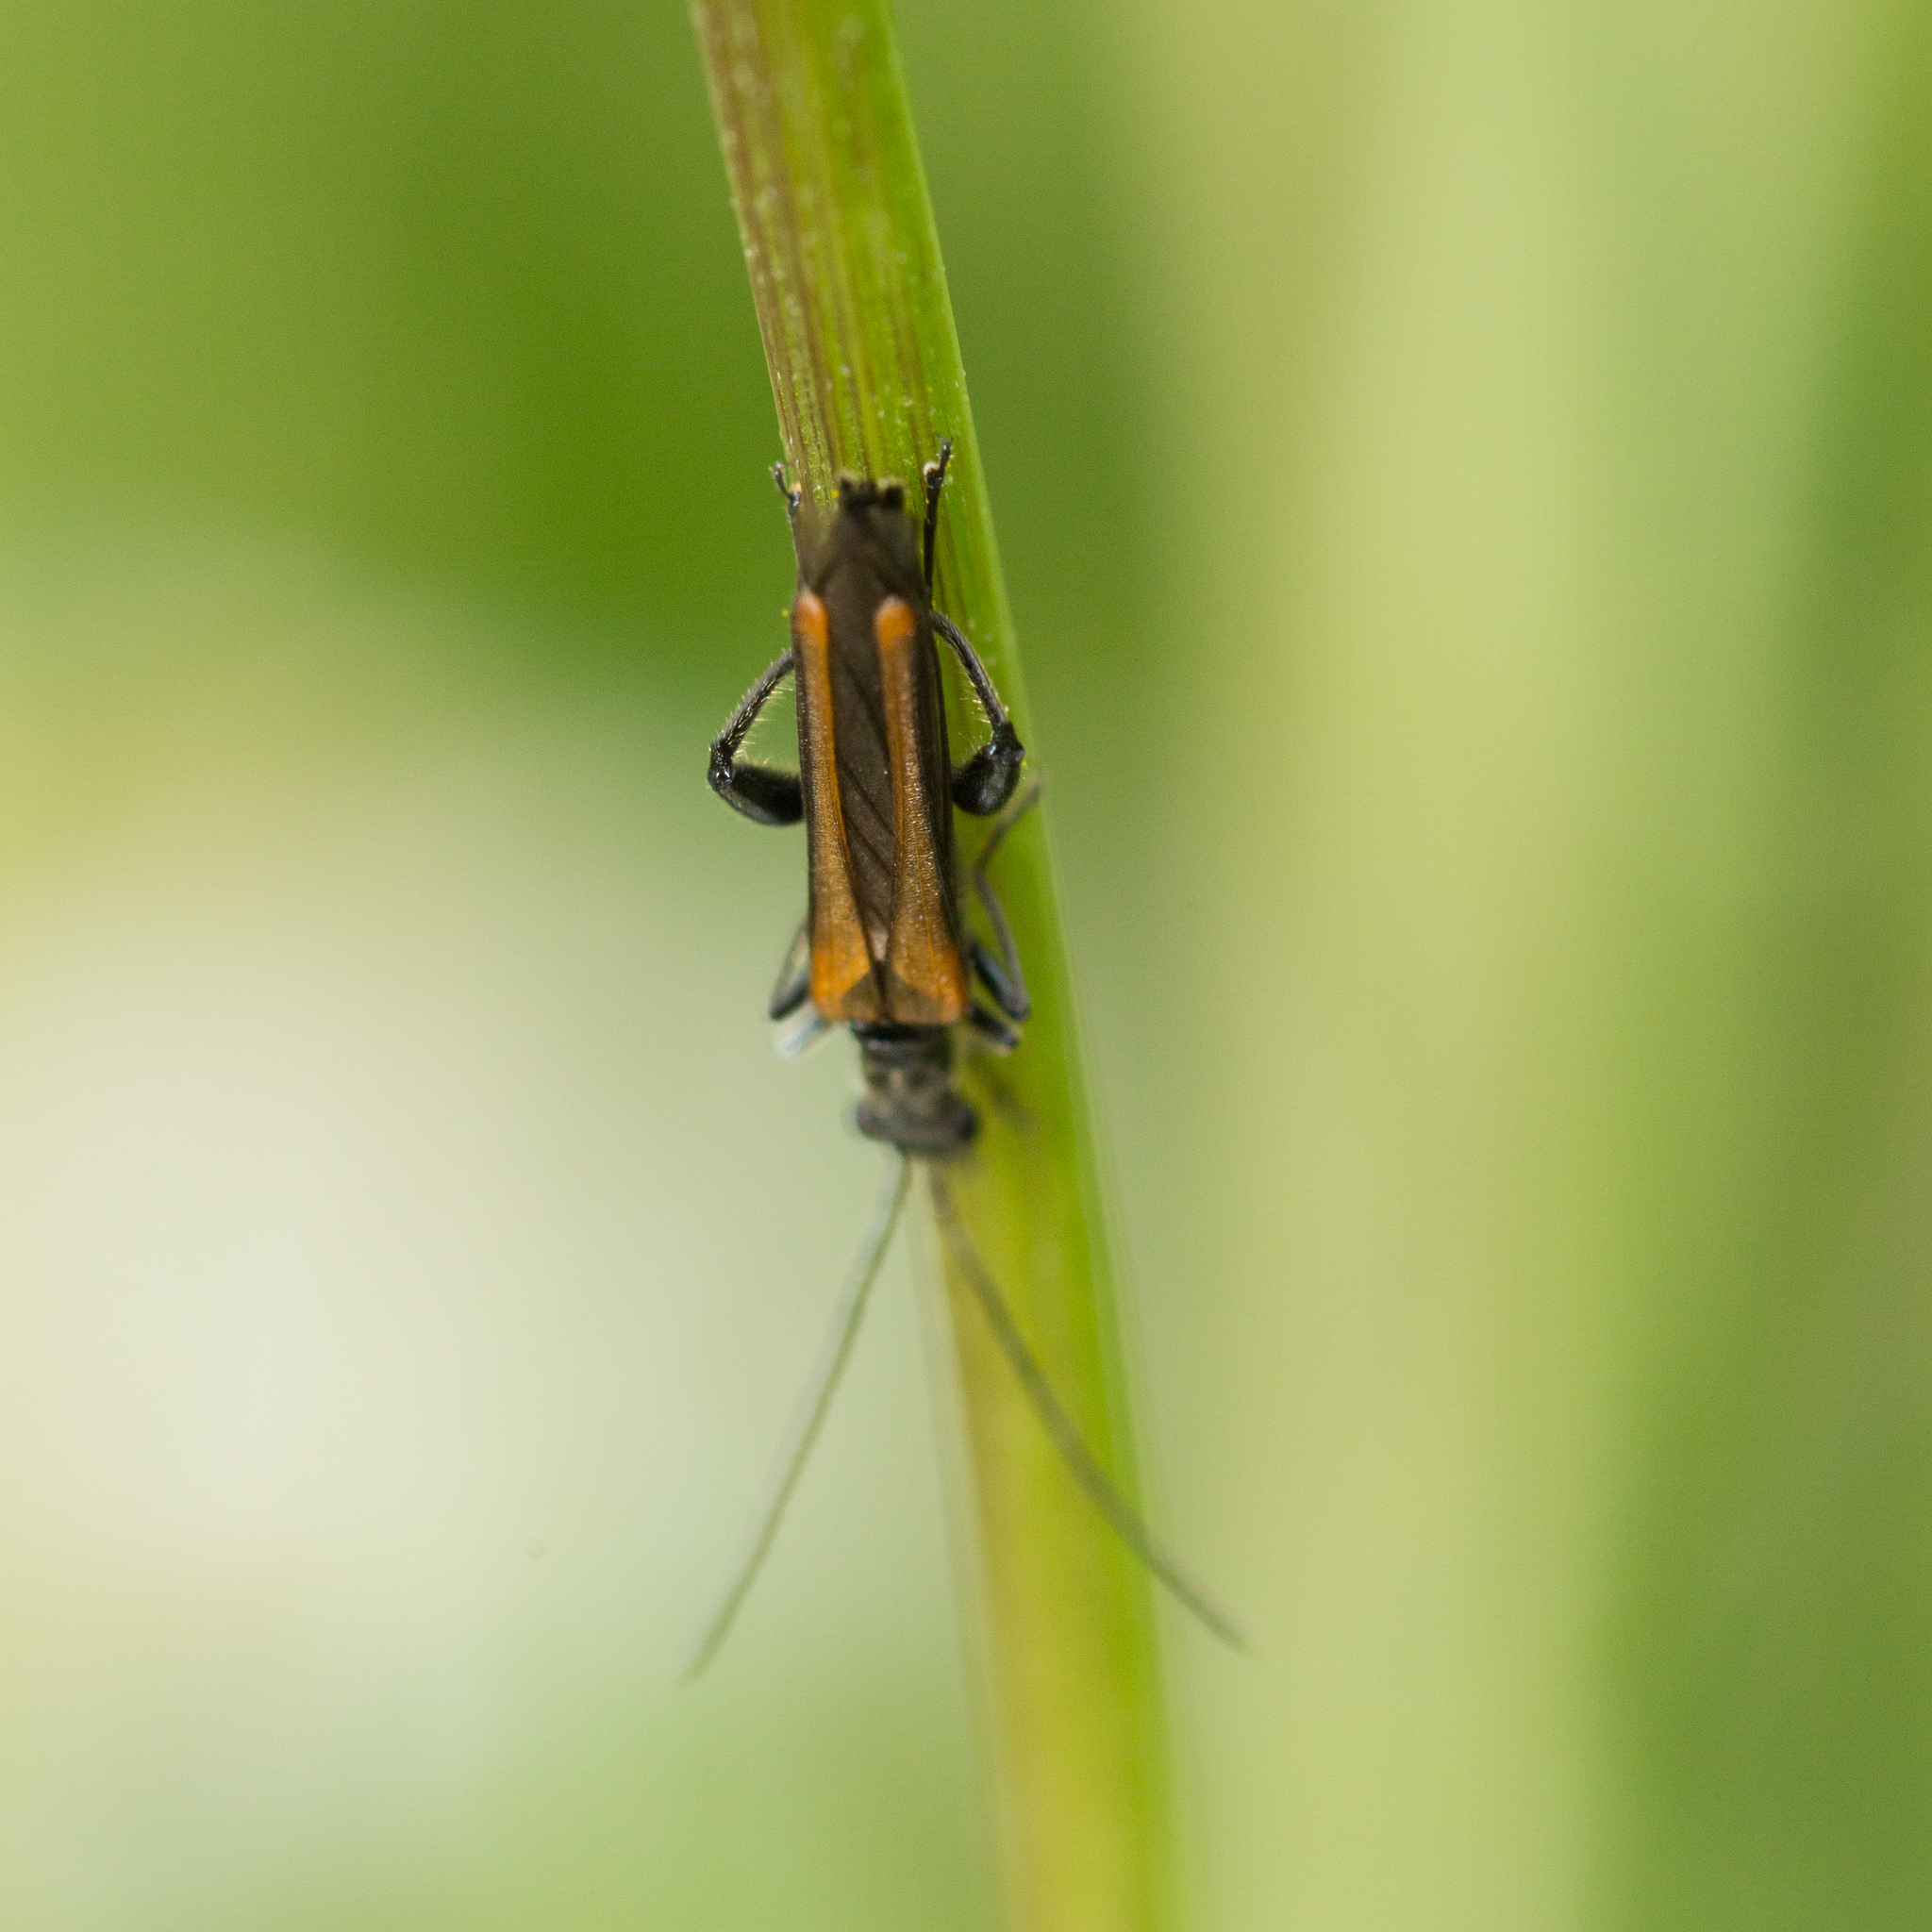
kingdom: Animalia
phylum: Arthropoda
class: Insecta
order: Coleoptera
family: Oedemeridae
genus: Oedemera
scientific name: Oedemera femorata
